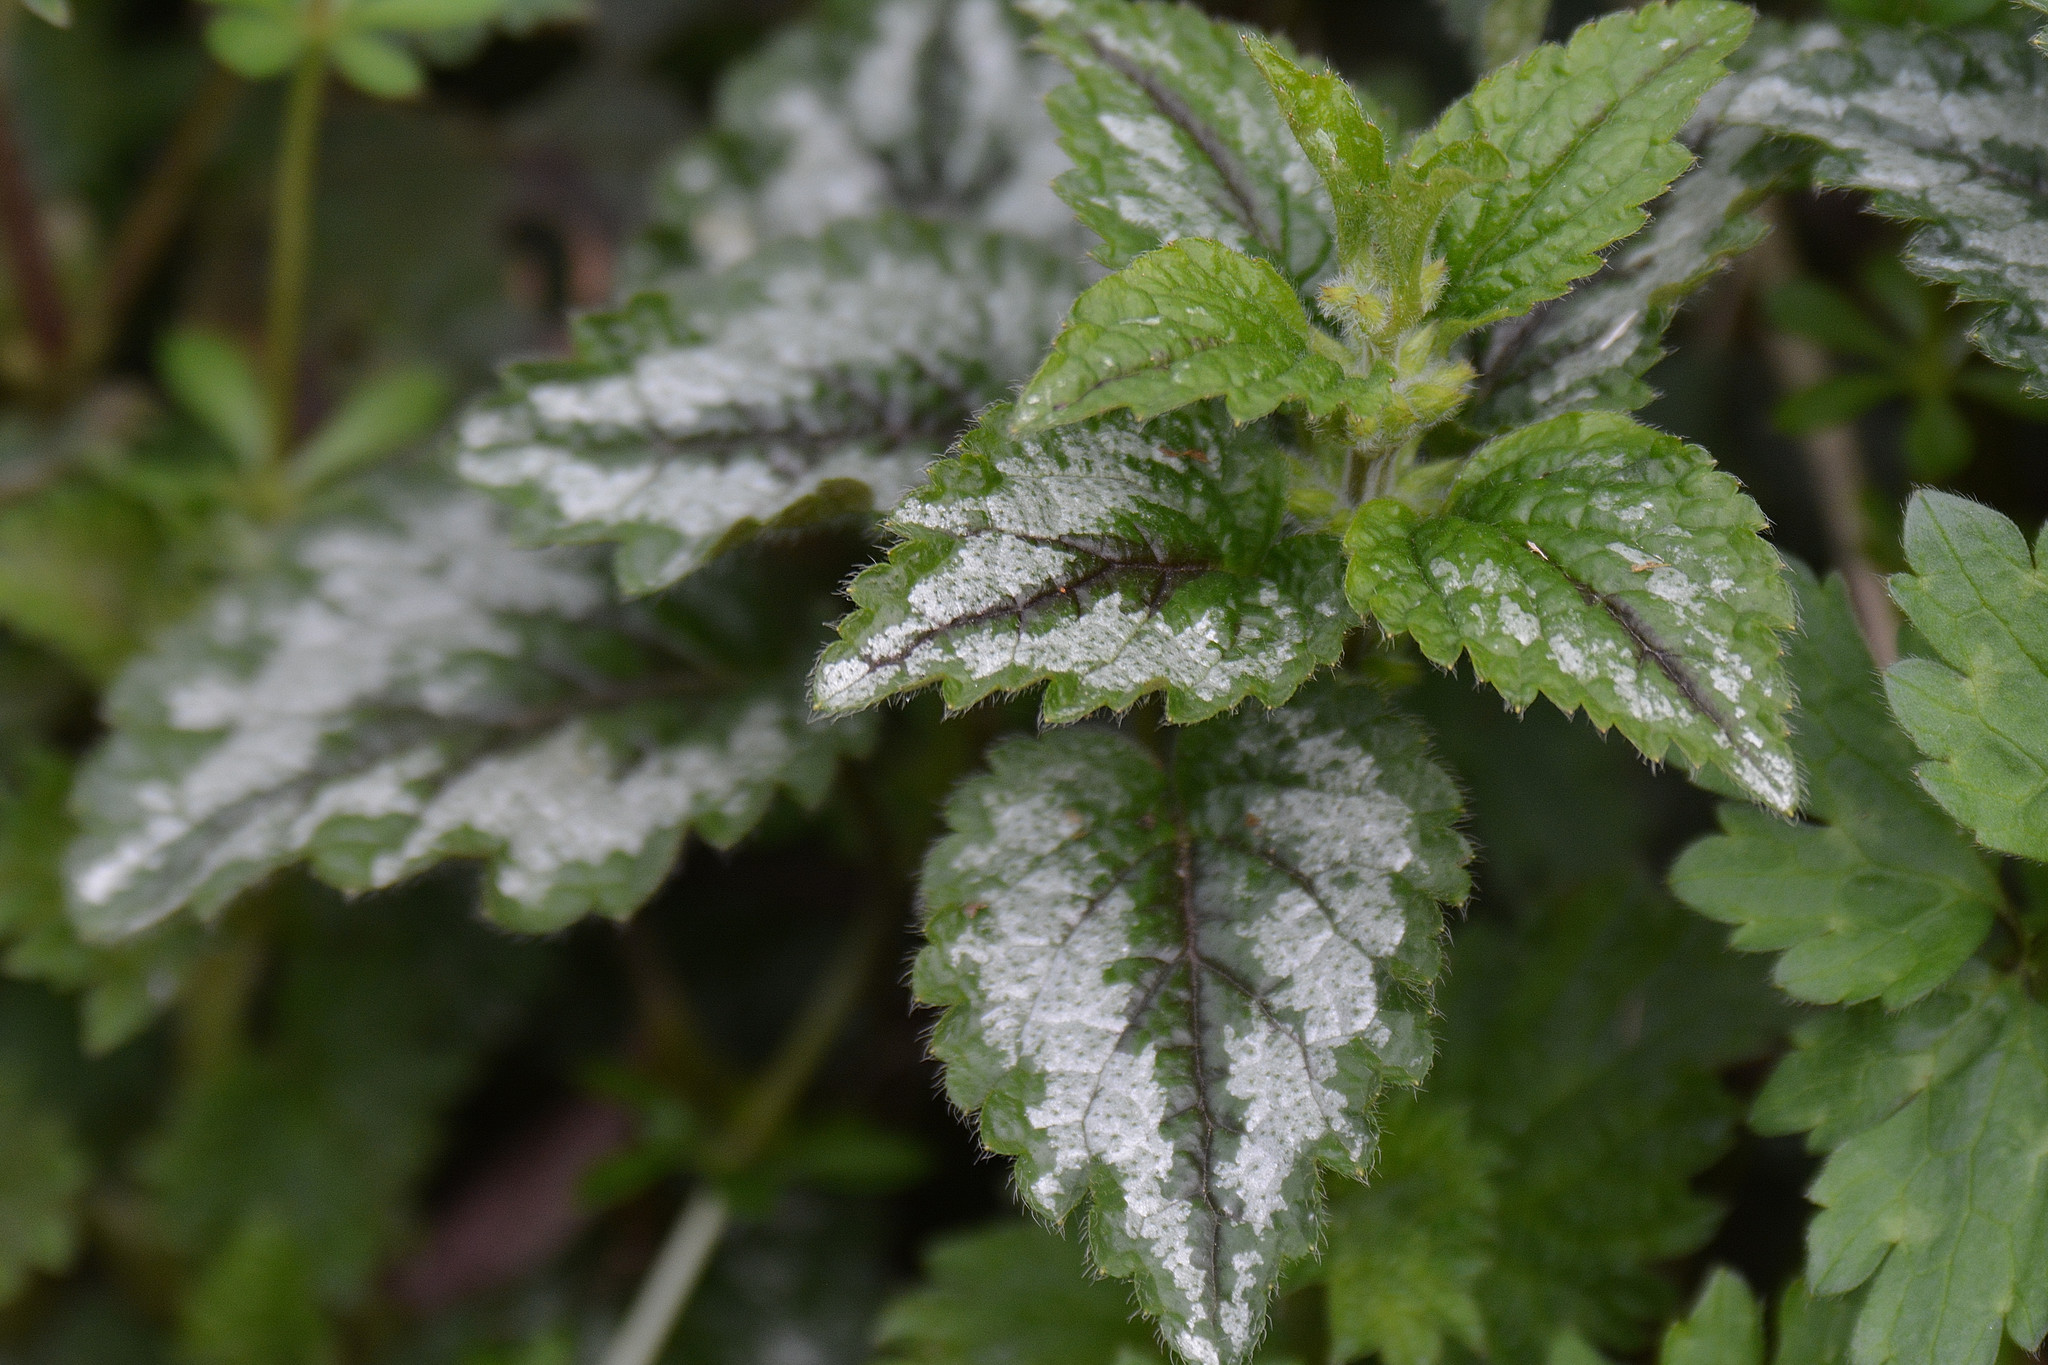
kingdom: Plantae
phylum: Tracheophyta
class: Magnoliopsida
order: Lamiales
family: Lamiaceae
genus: Lamium
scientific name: Lamium galeobdolon
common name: Yellow archangel
